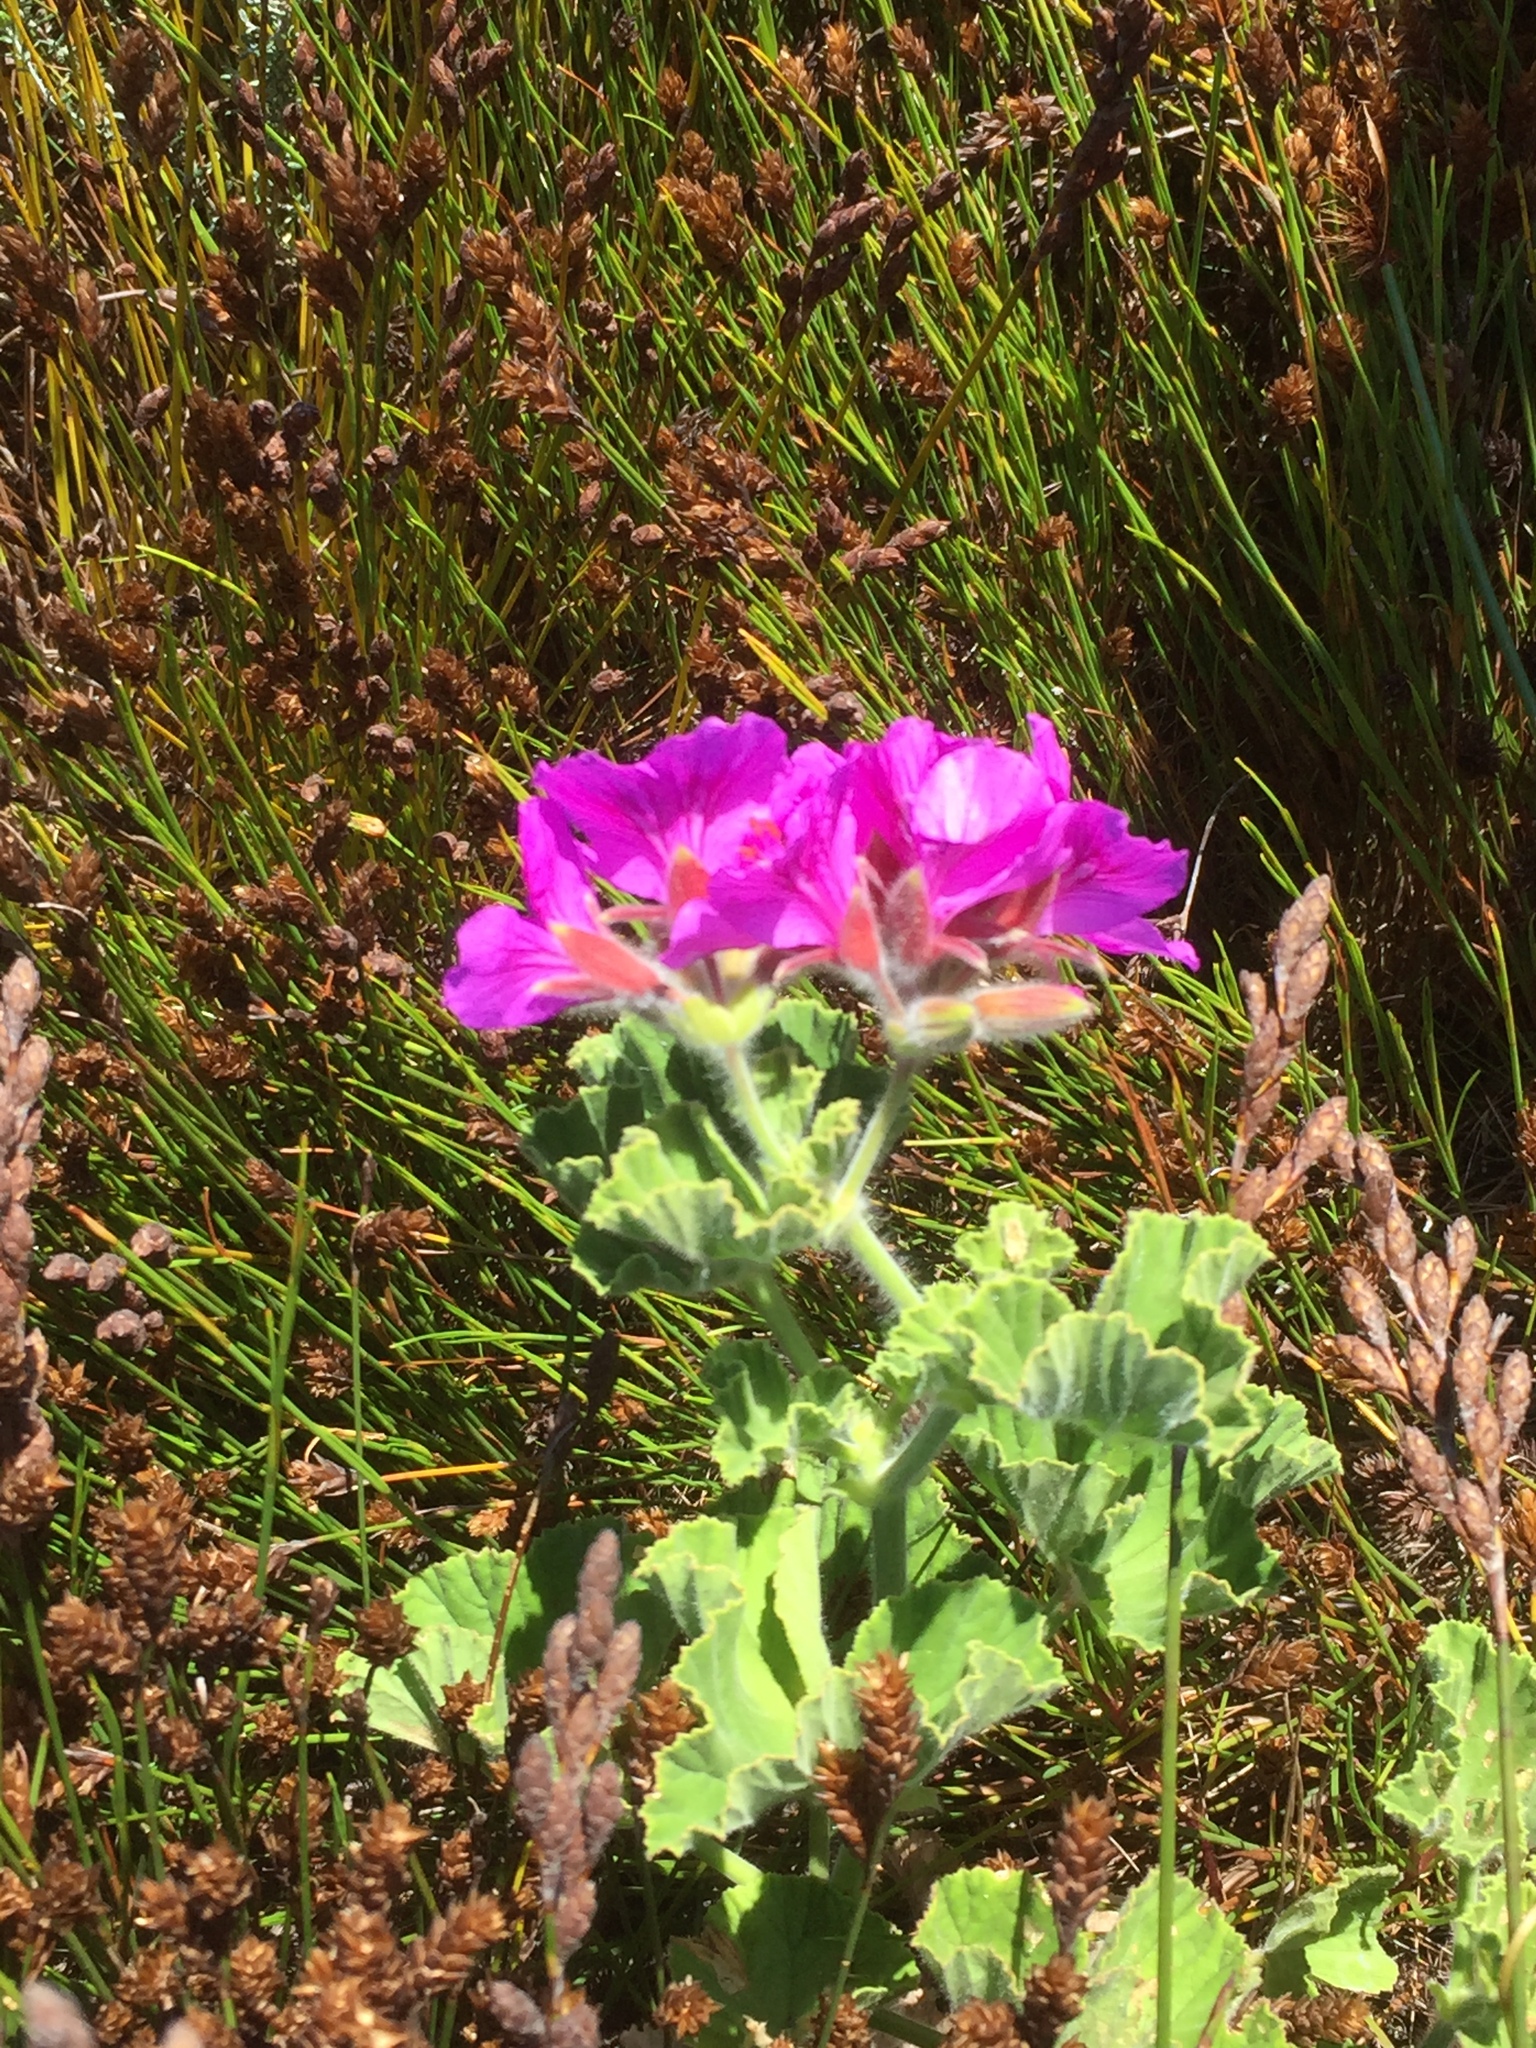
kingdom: Plantae
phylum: Tracheophyta
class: Magnoliopsida
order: Geraniales
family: Geraniaceae
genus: Pelargonium
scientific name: Pelargonium cucullatum
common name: Tree pelargonium
